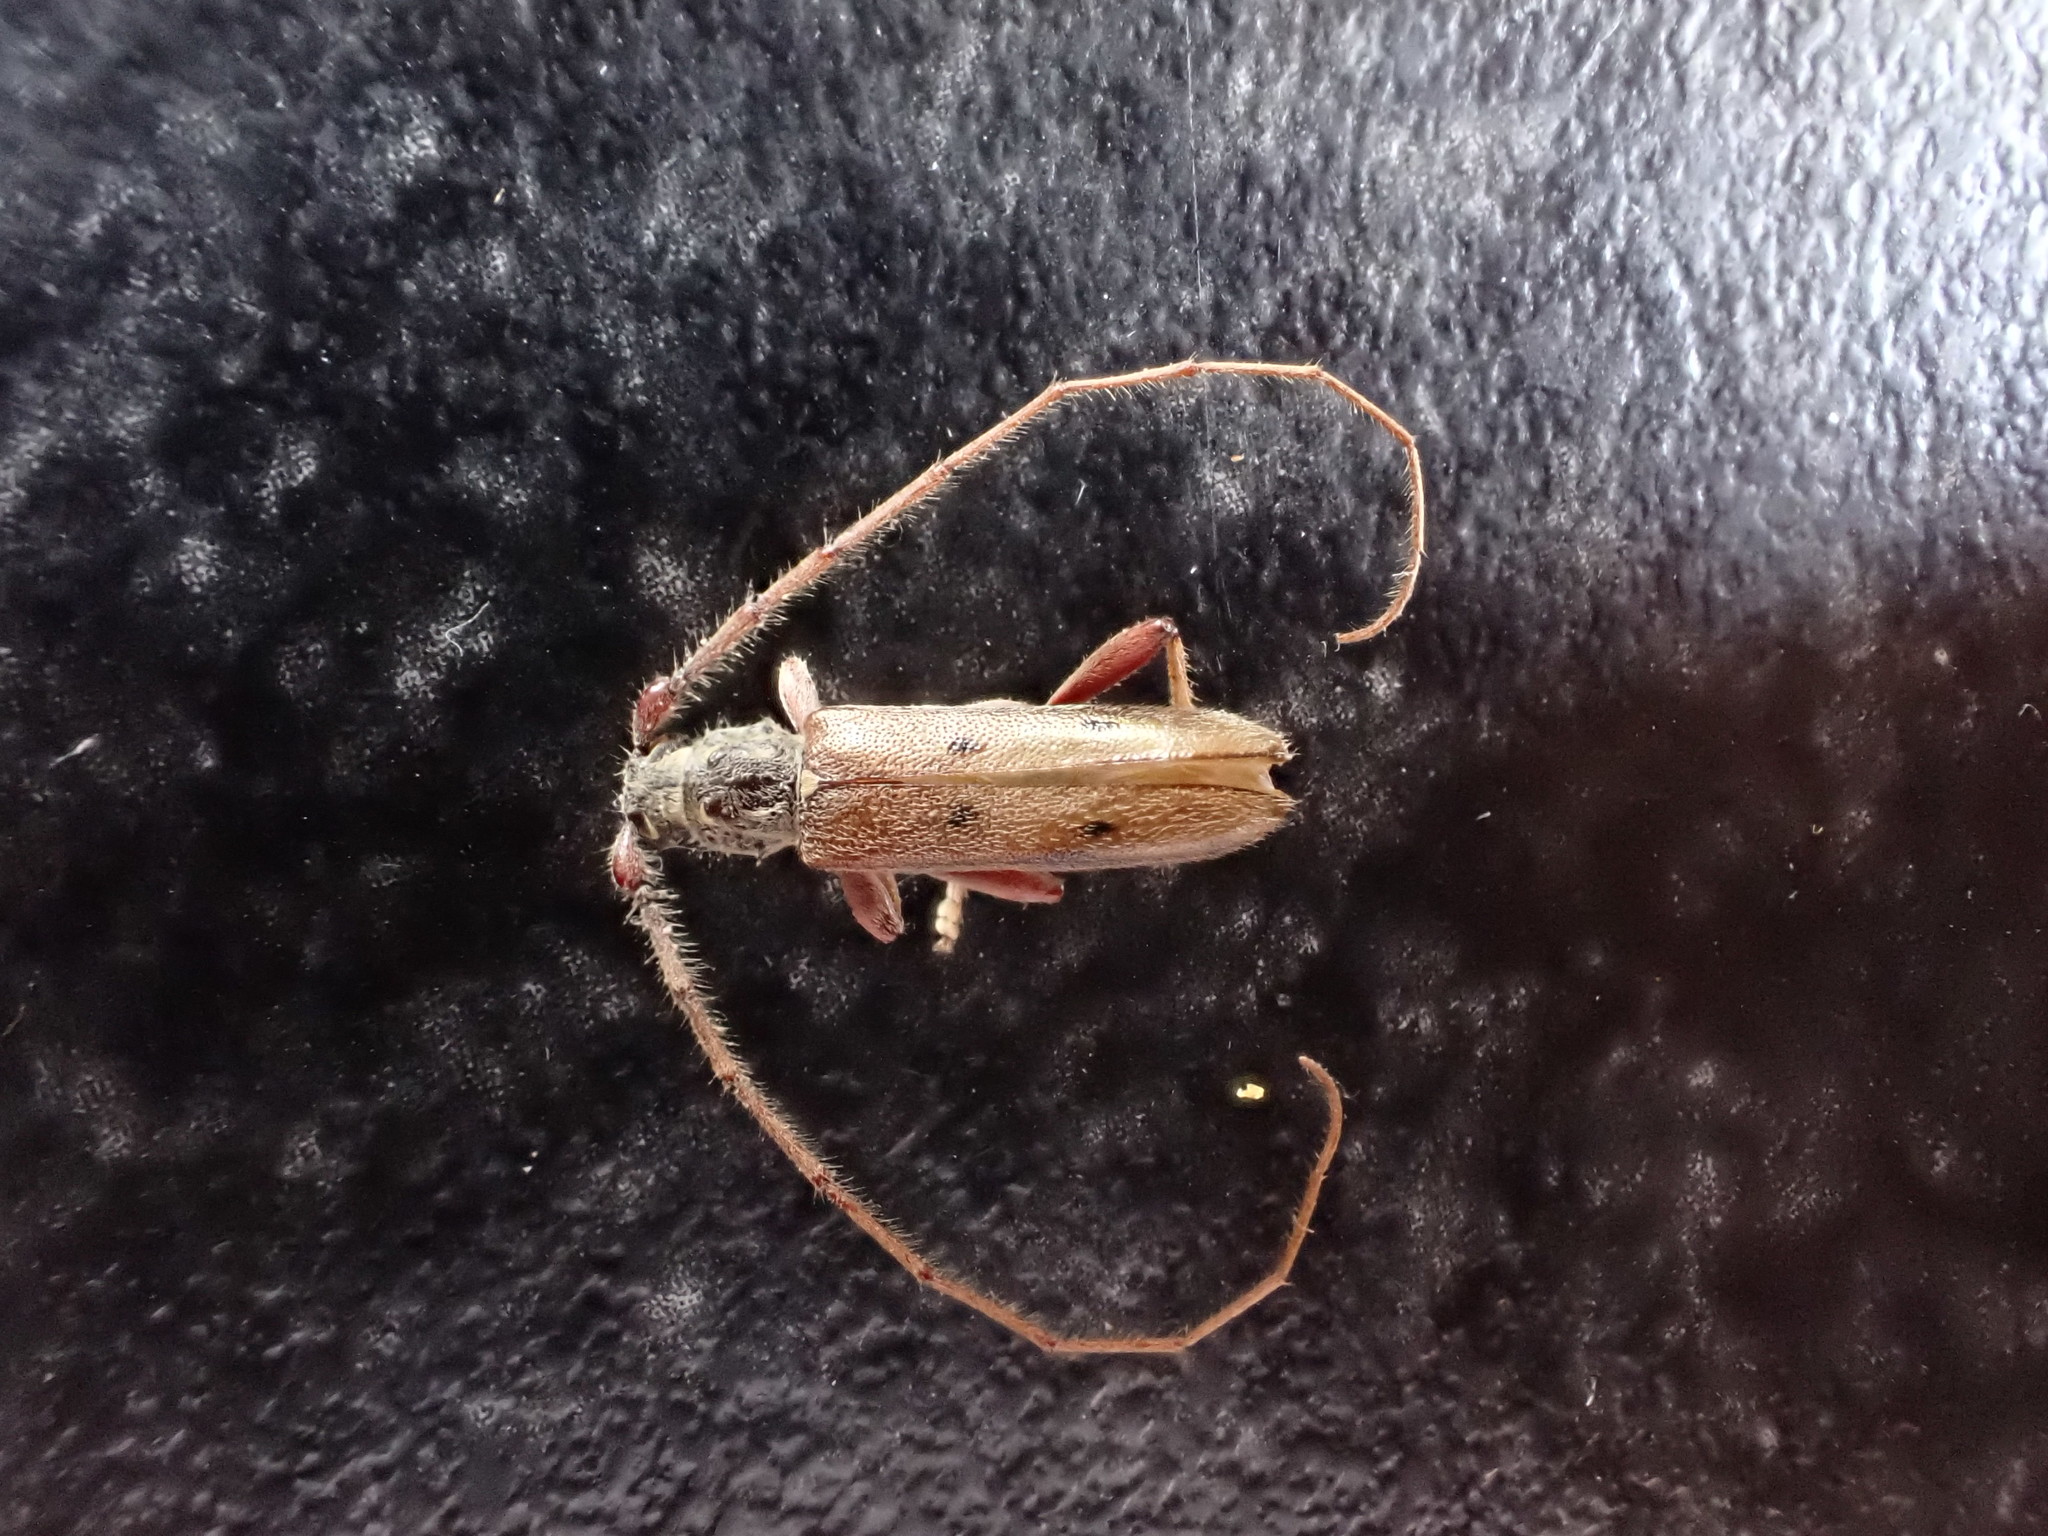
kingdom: Animalia
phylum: Arthropoda
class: Insecta
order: Coleoptera
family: Cerambycidae
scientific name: Cerambycidae
